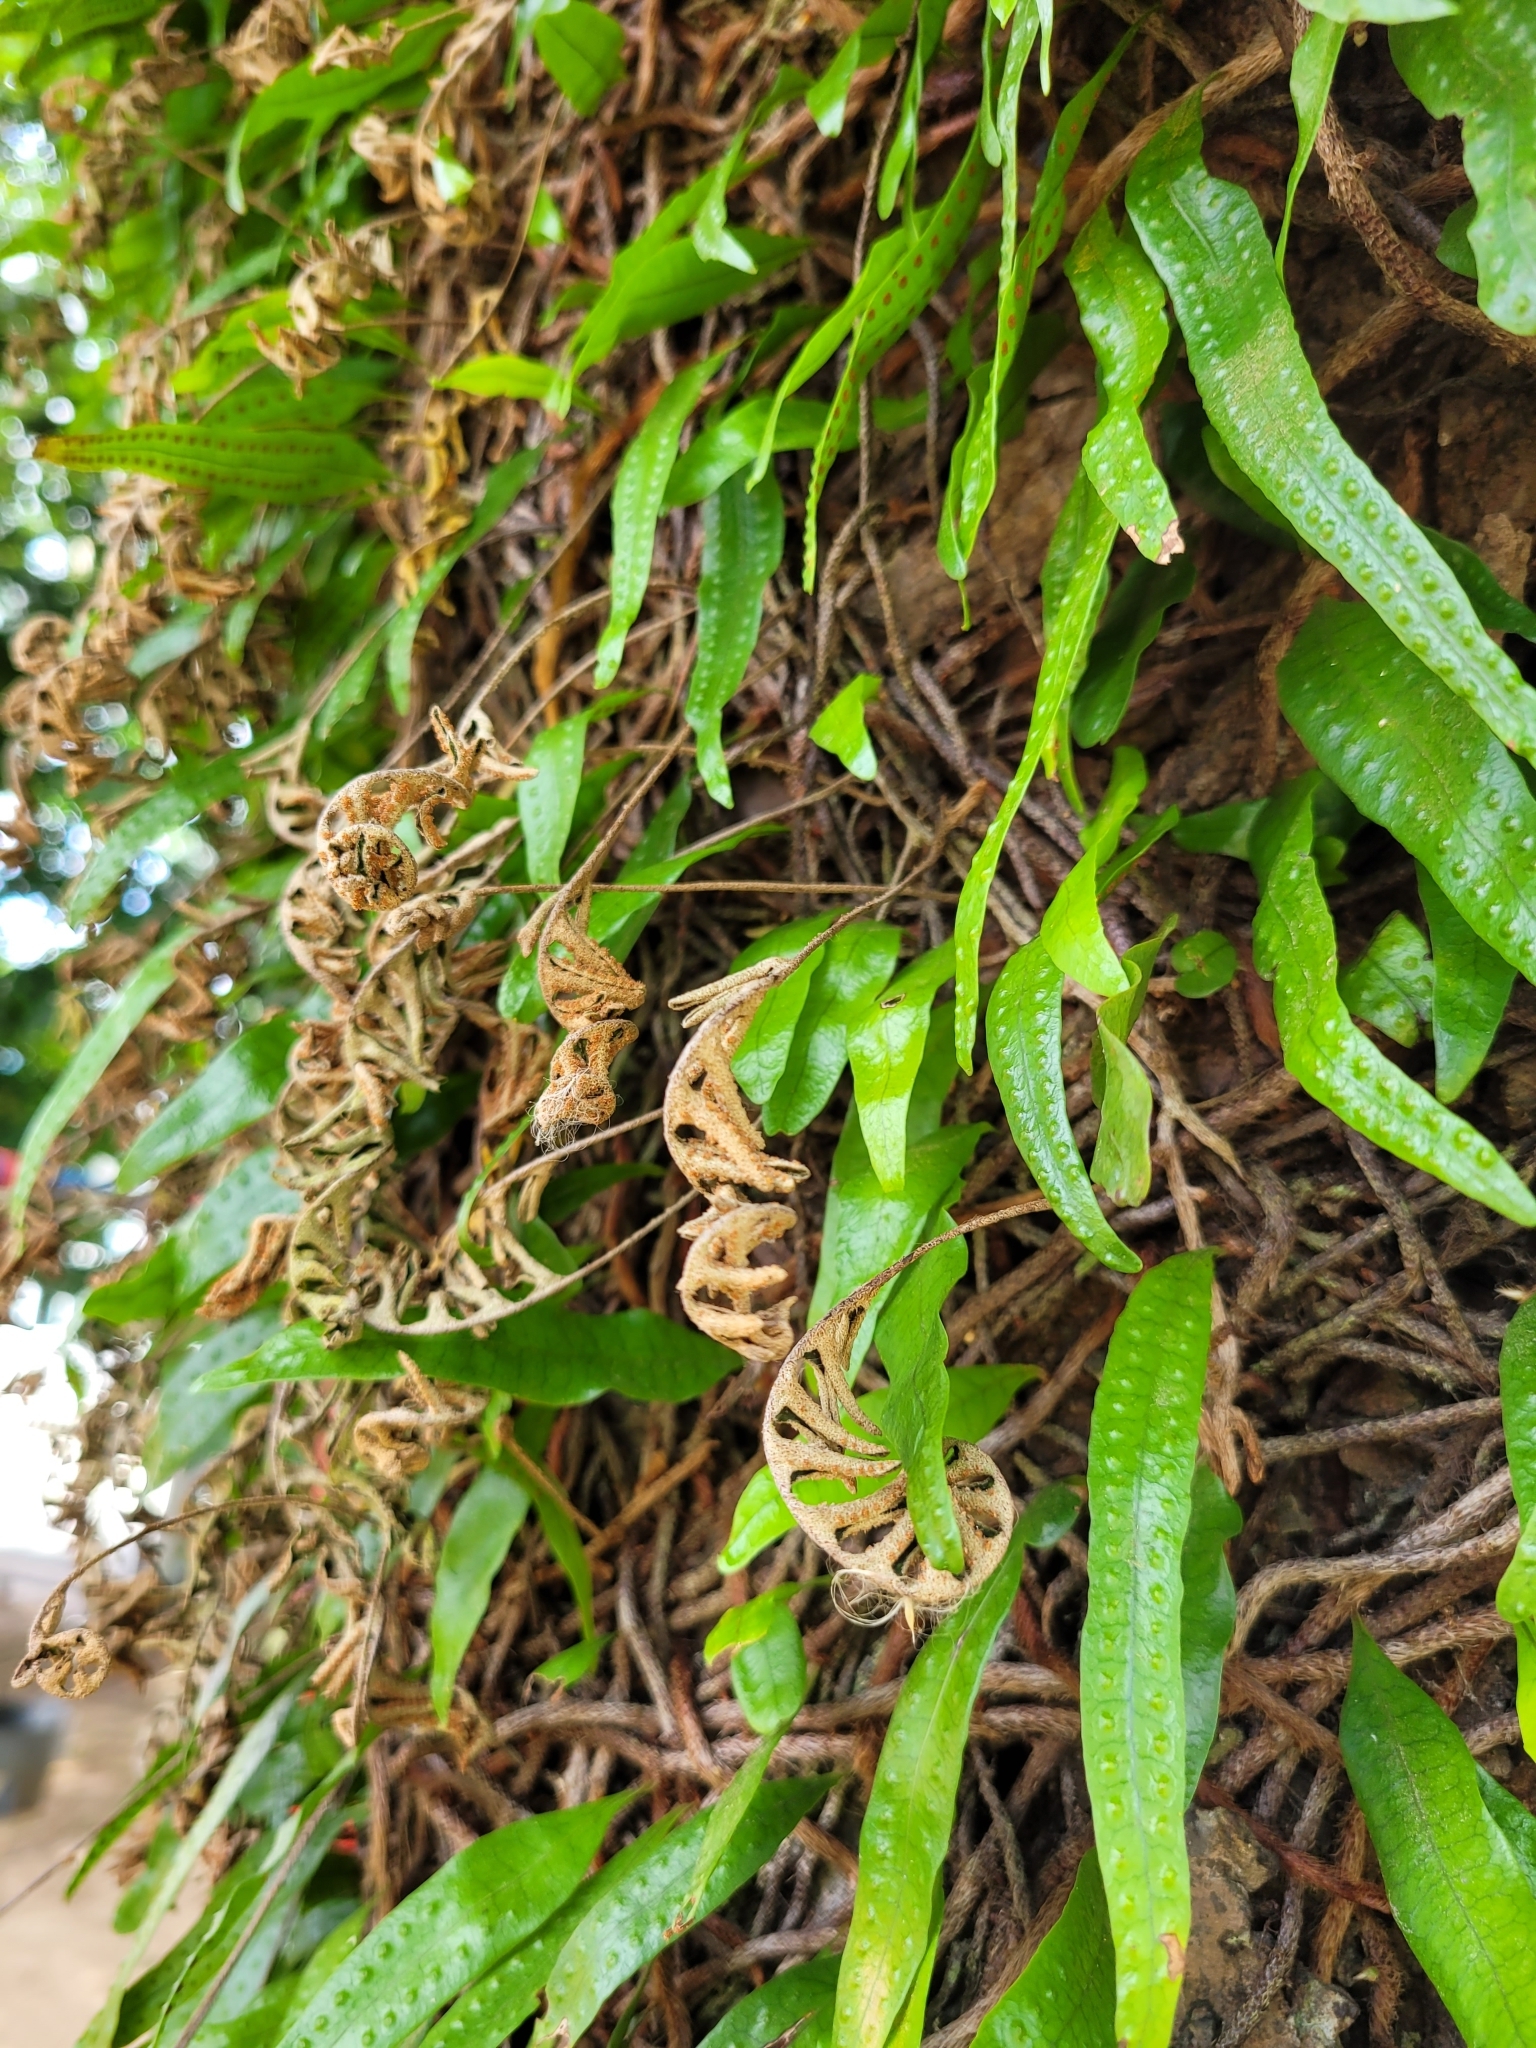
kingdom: Plantae
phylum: Tracheophyta
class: Polypodiopsida
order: Polypodiales
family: Polypodiaceae
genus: Microgramma
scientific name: Microgramma lycopodioides
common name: Bastard catclaw
